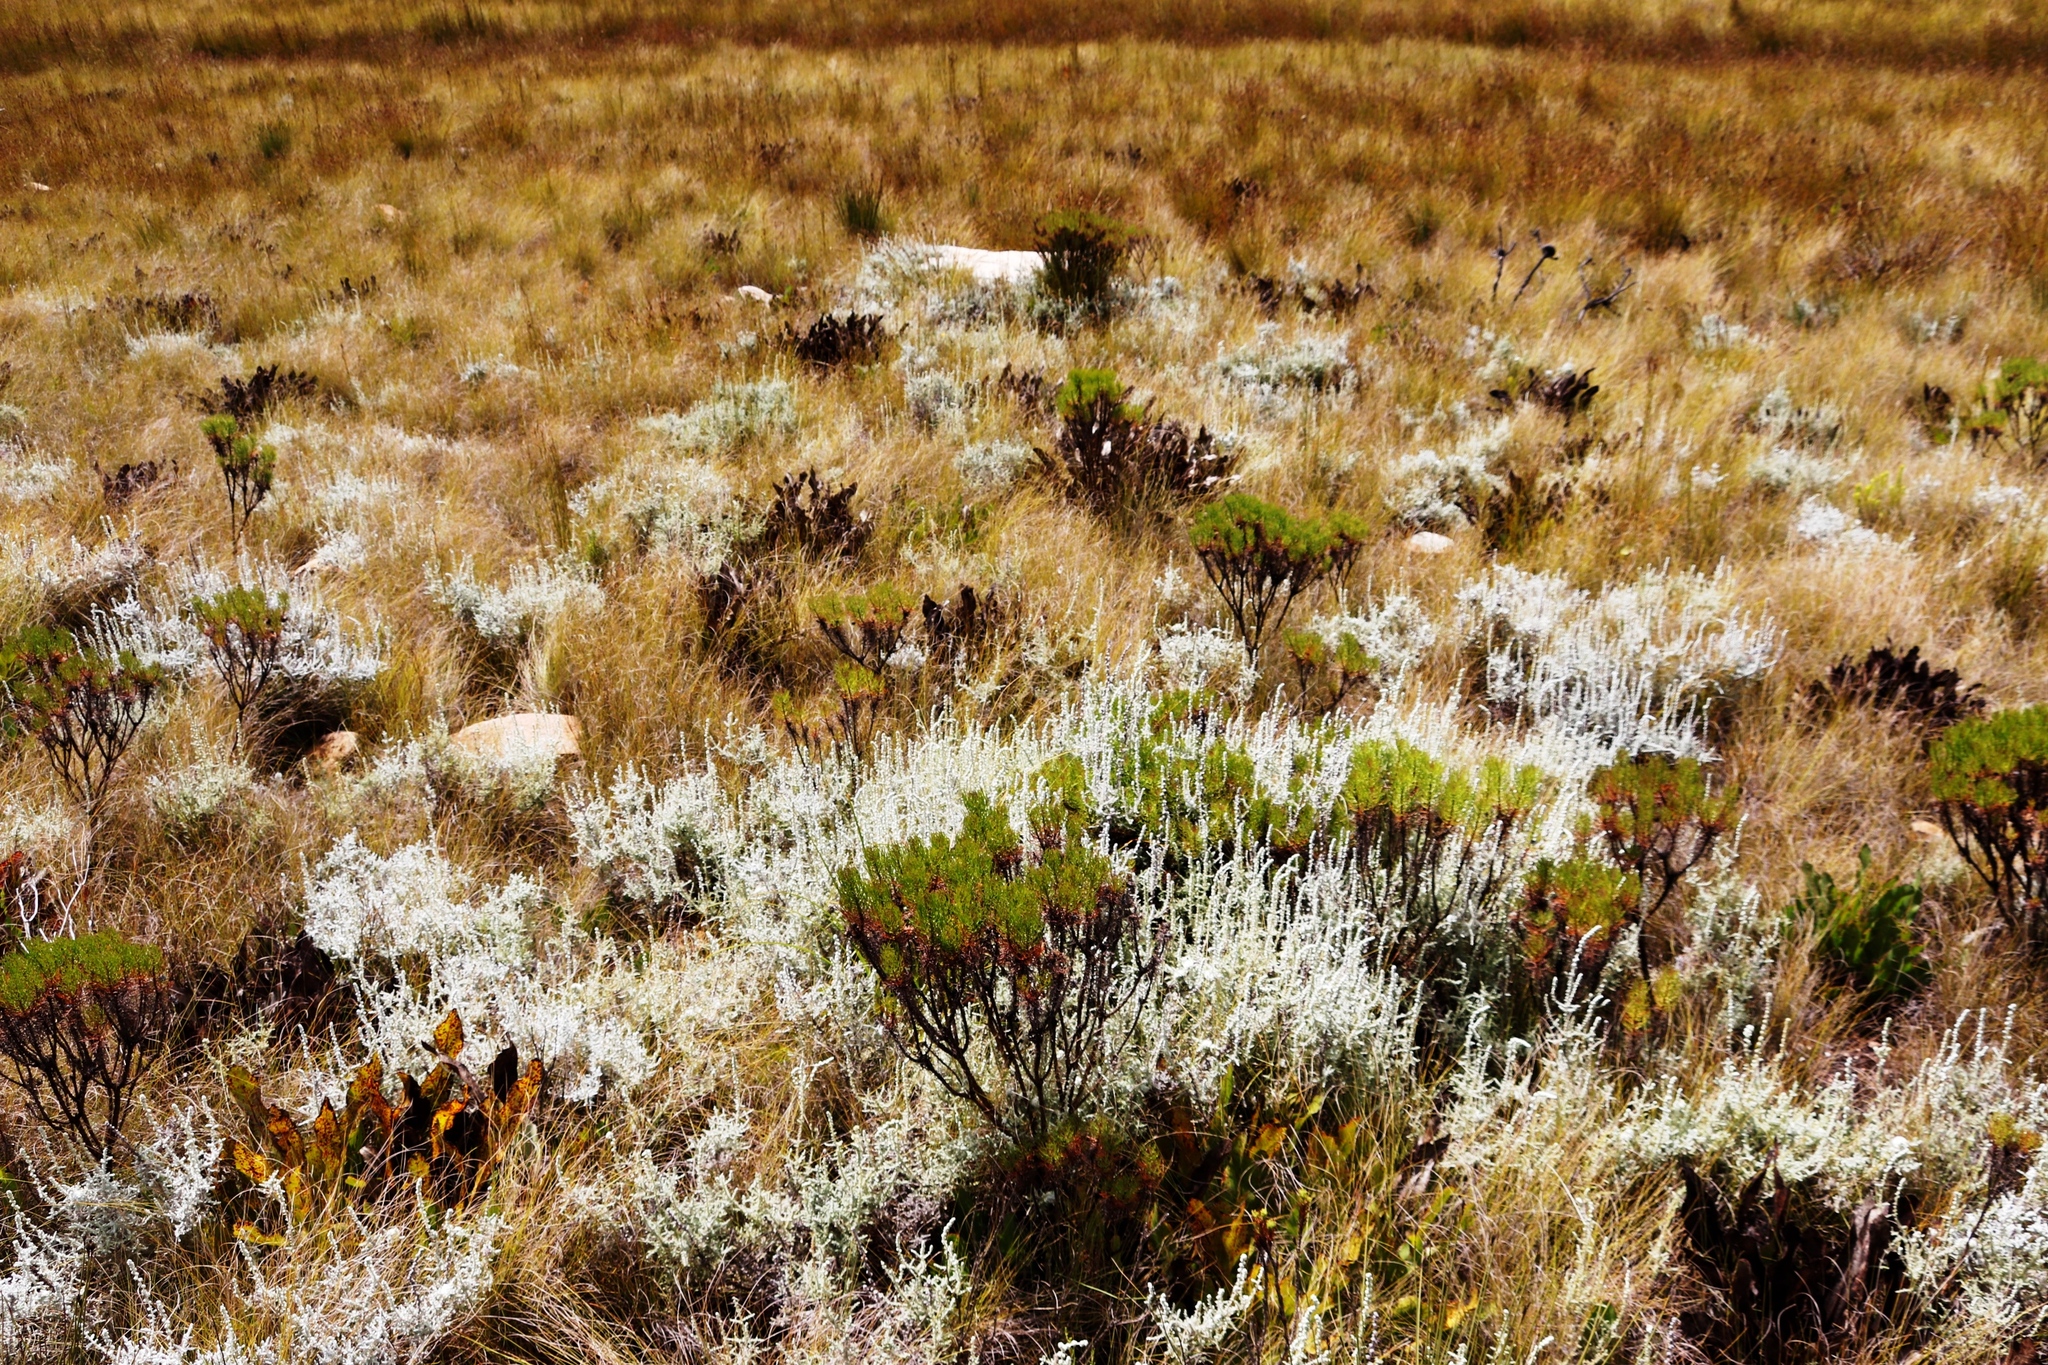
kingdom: Plantae
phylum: Tracheophyta
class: Magnoliopsida
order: Proteales
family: Proteaceae
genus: Protea
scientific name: Protea scolopendriifolia
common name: Harts-tongue-fern sugarbush
